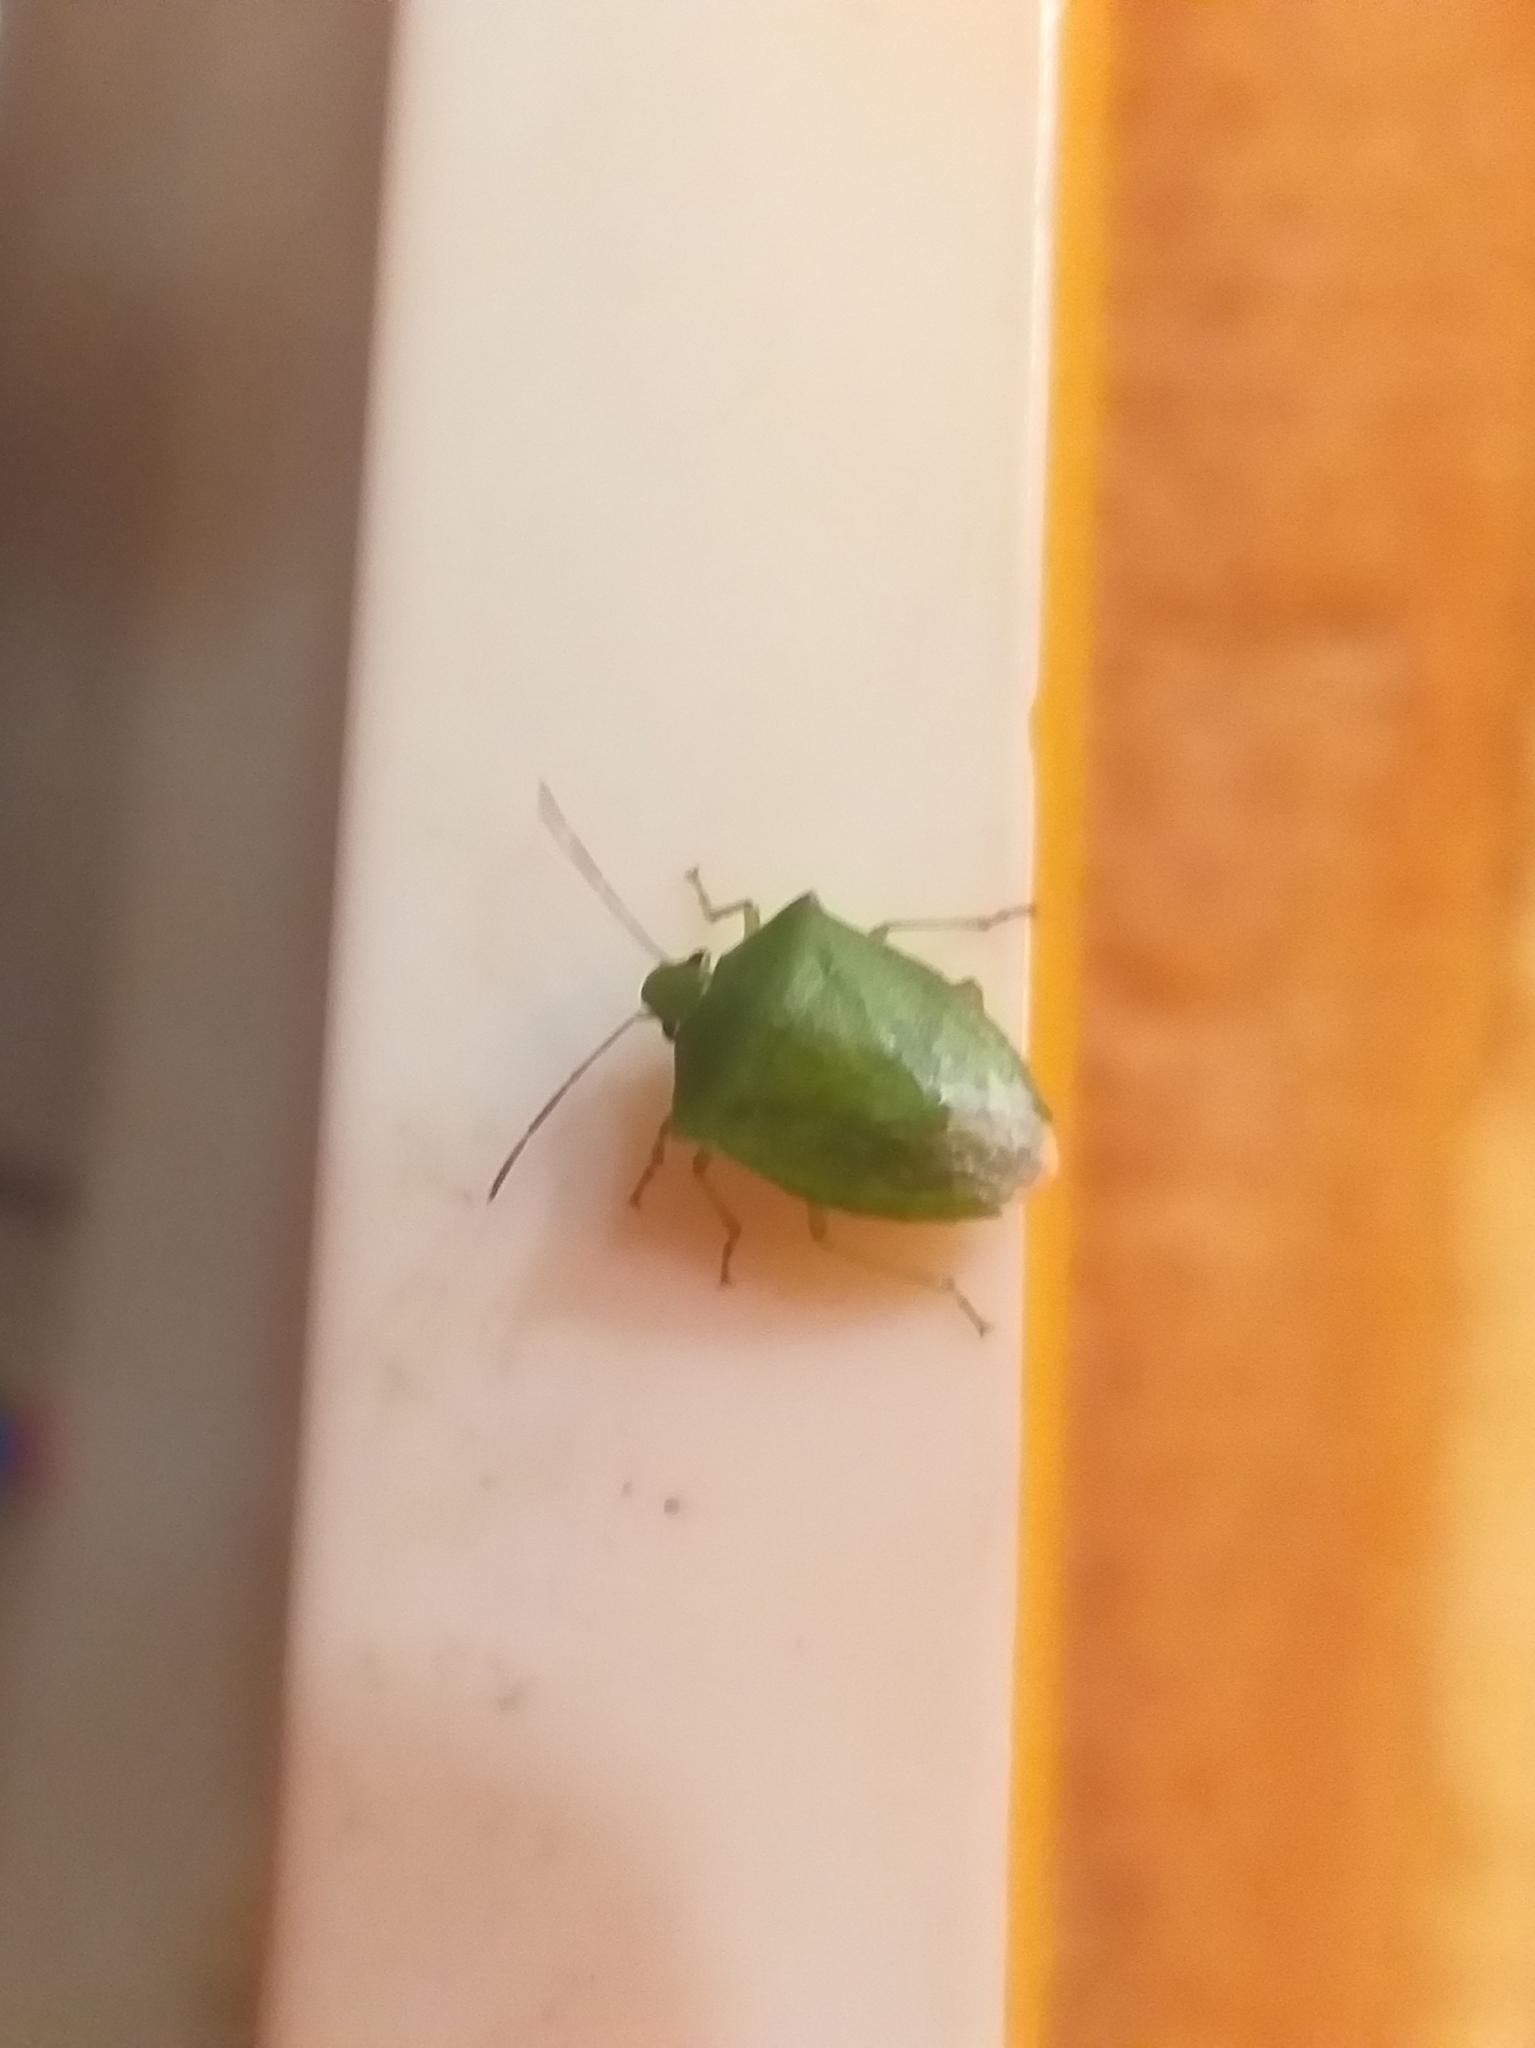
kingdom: Animalia
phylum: Arthropoda
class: Insecta
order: Hemiptera
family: Pentatomidae
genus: Cuspicona
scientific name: Cuspicona simplex
